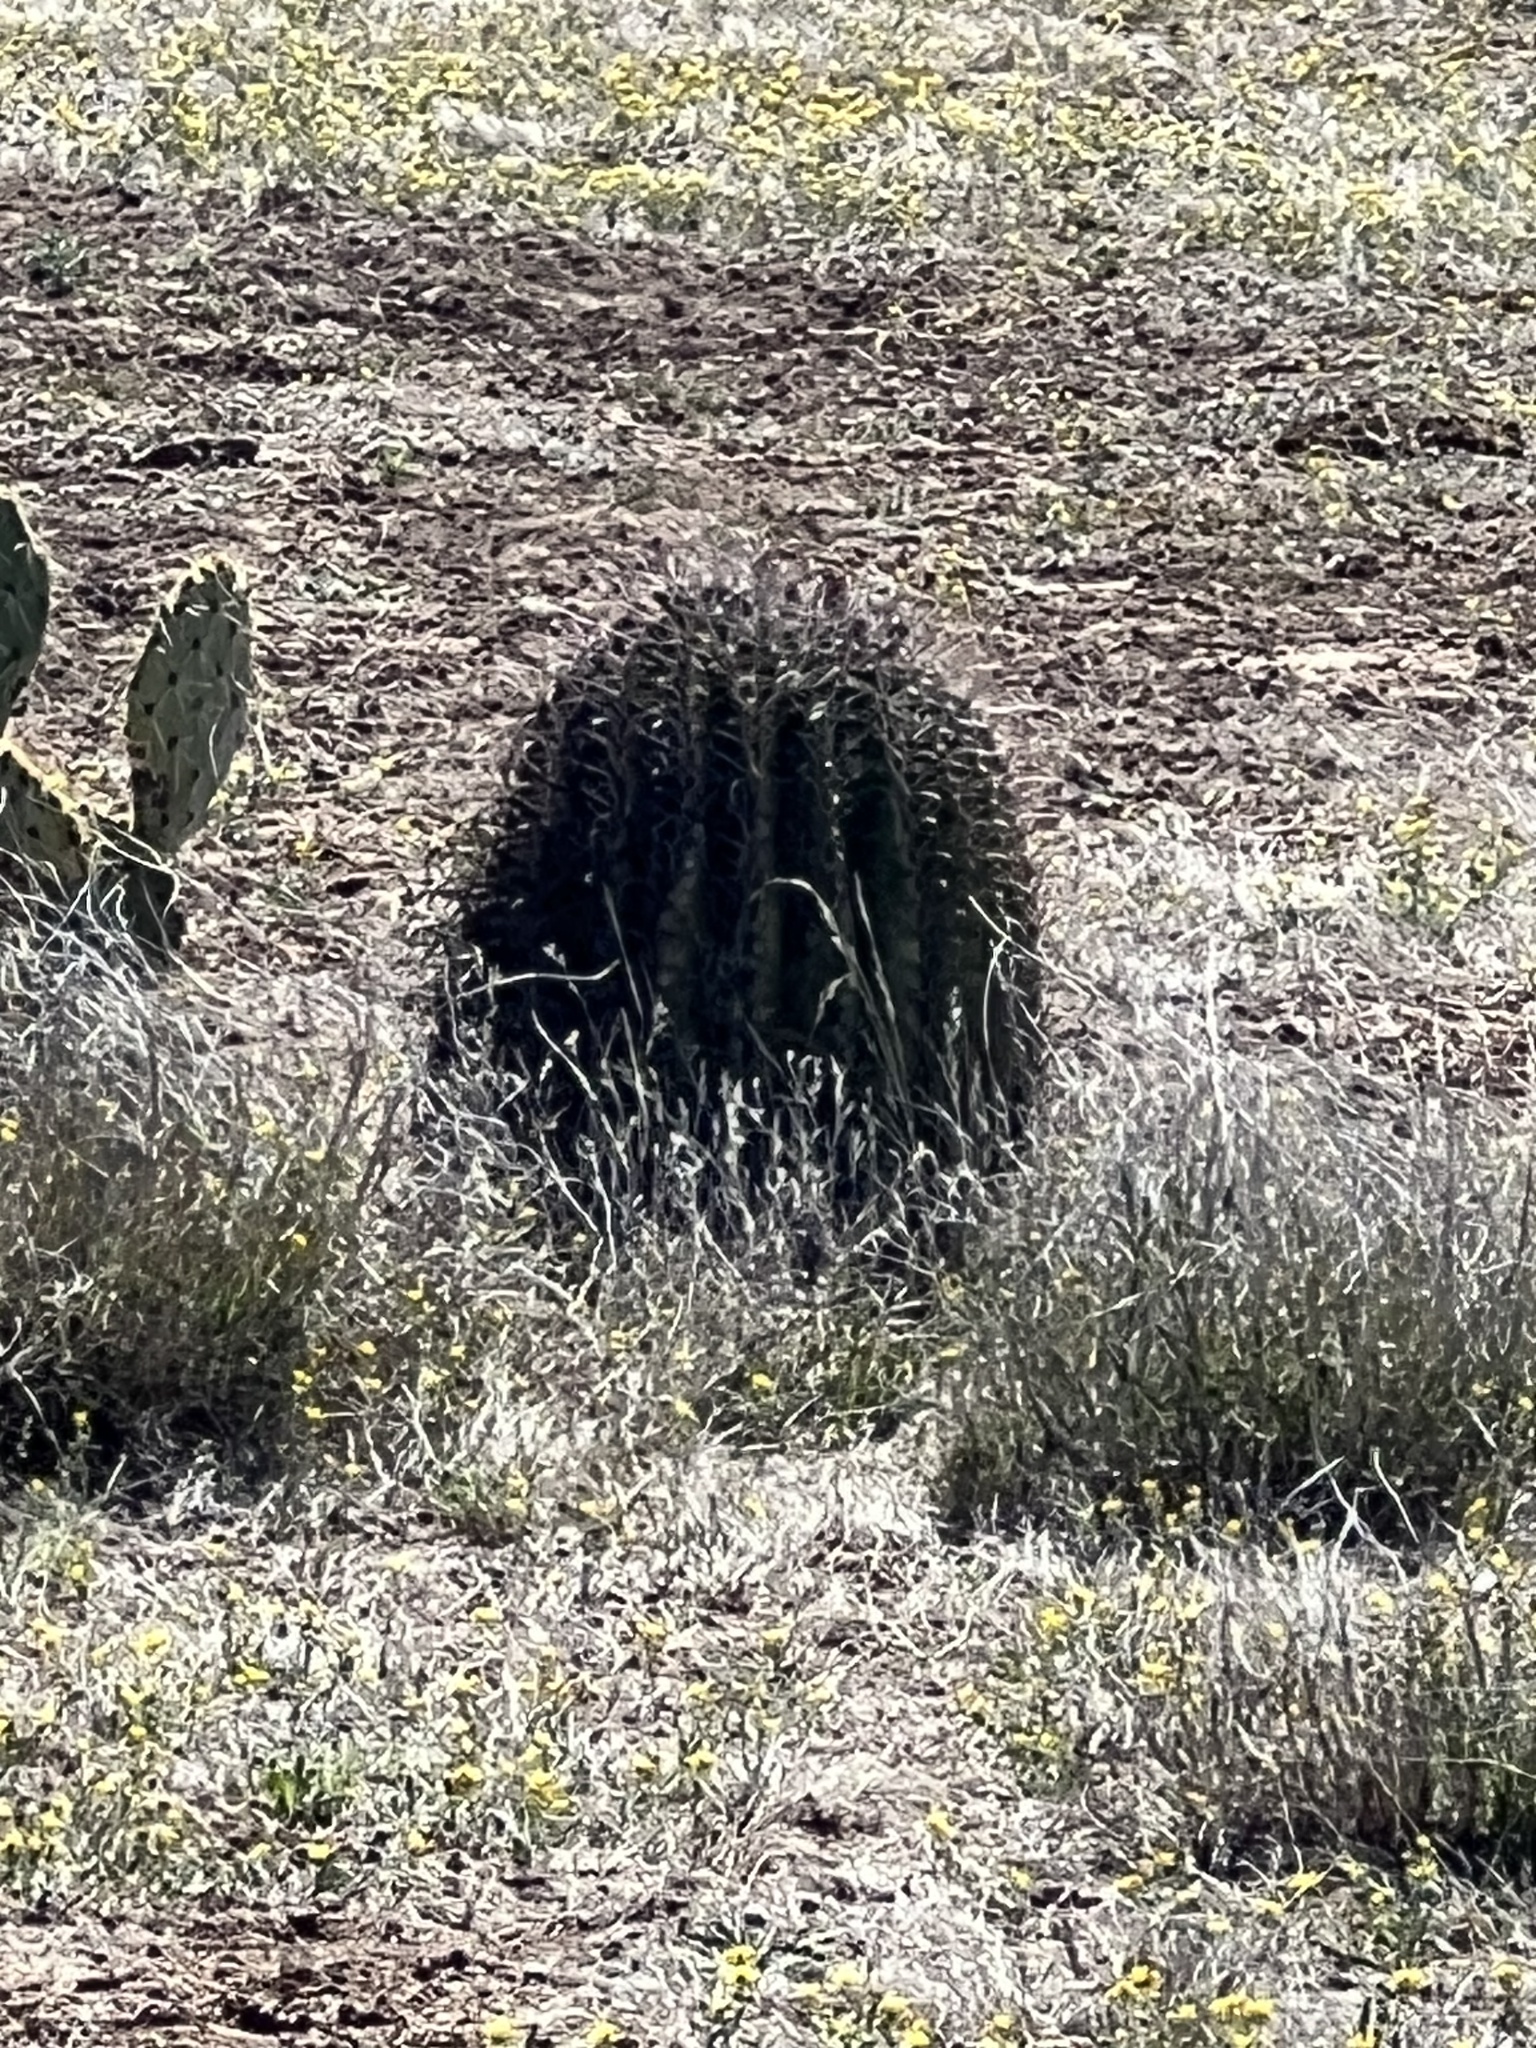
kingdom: Plantae
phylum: Tracheophyta
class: Magnoliopsida
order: Caryophyllales
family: Cactaceae
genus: Ferocactus
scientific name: Ferocactus wislizeni
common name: Candy barrel cactus
